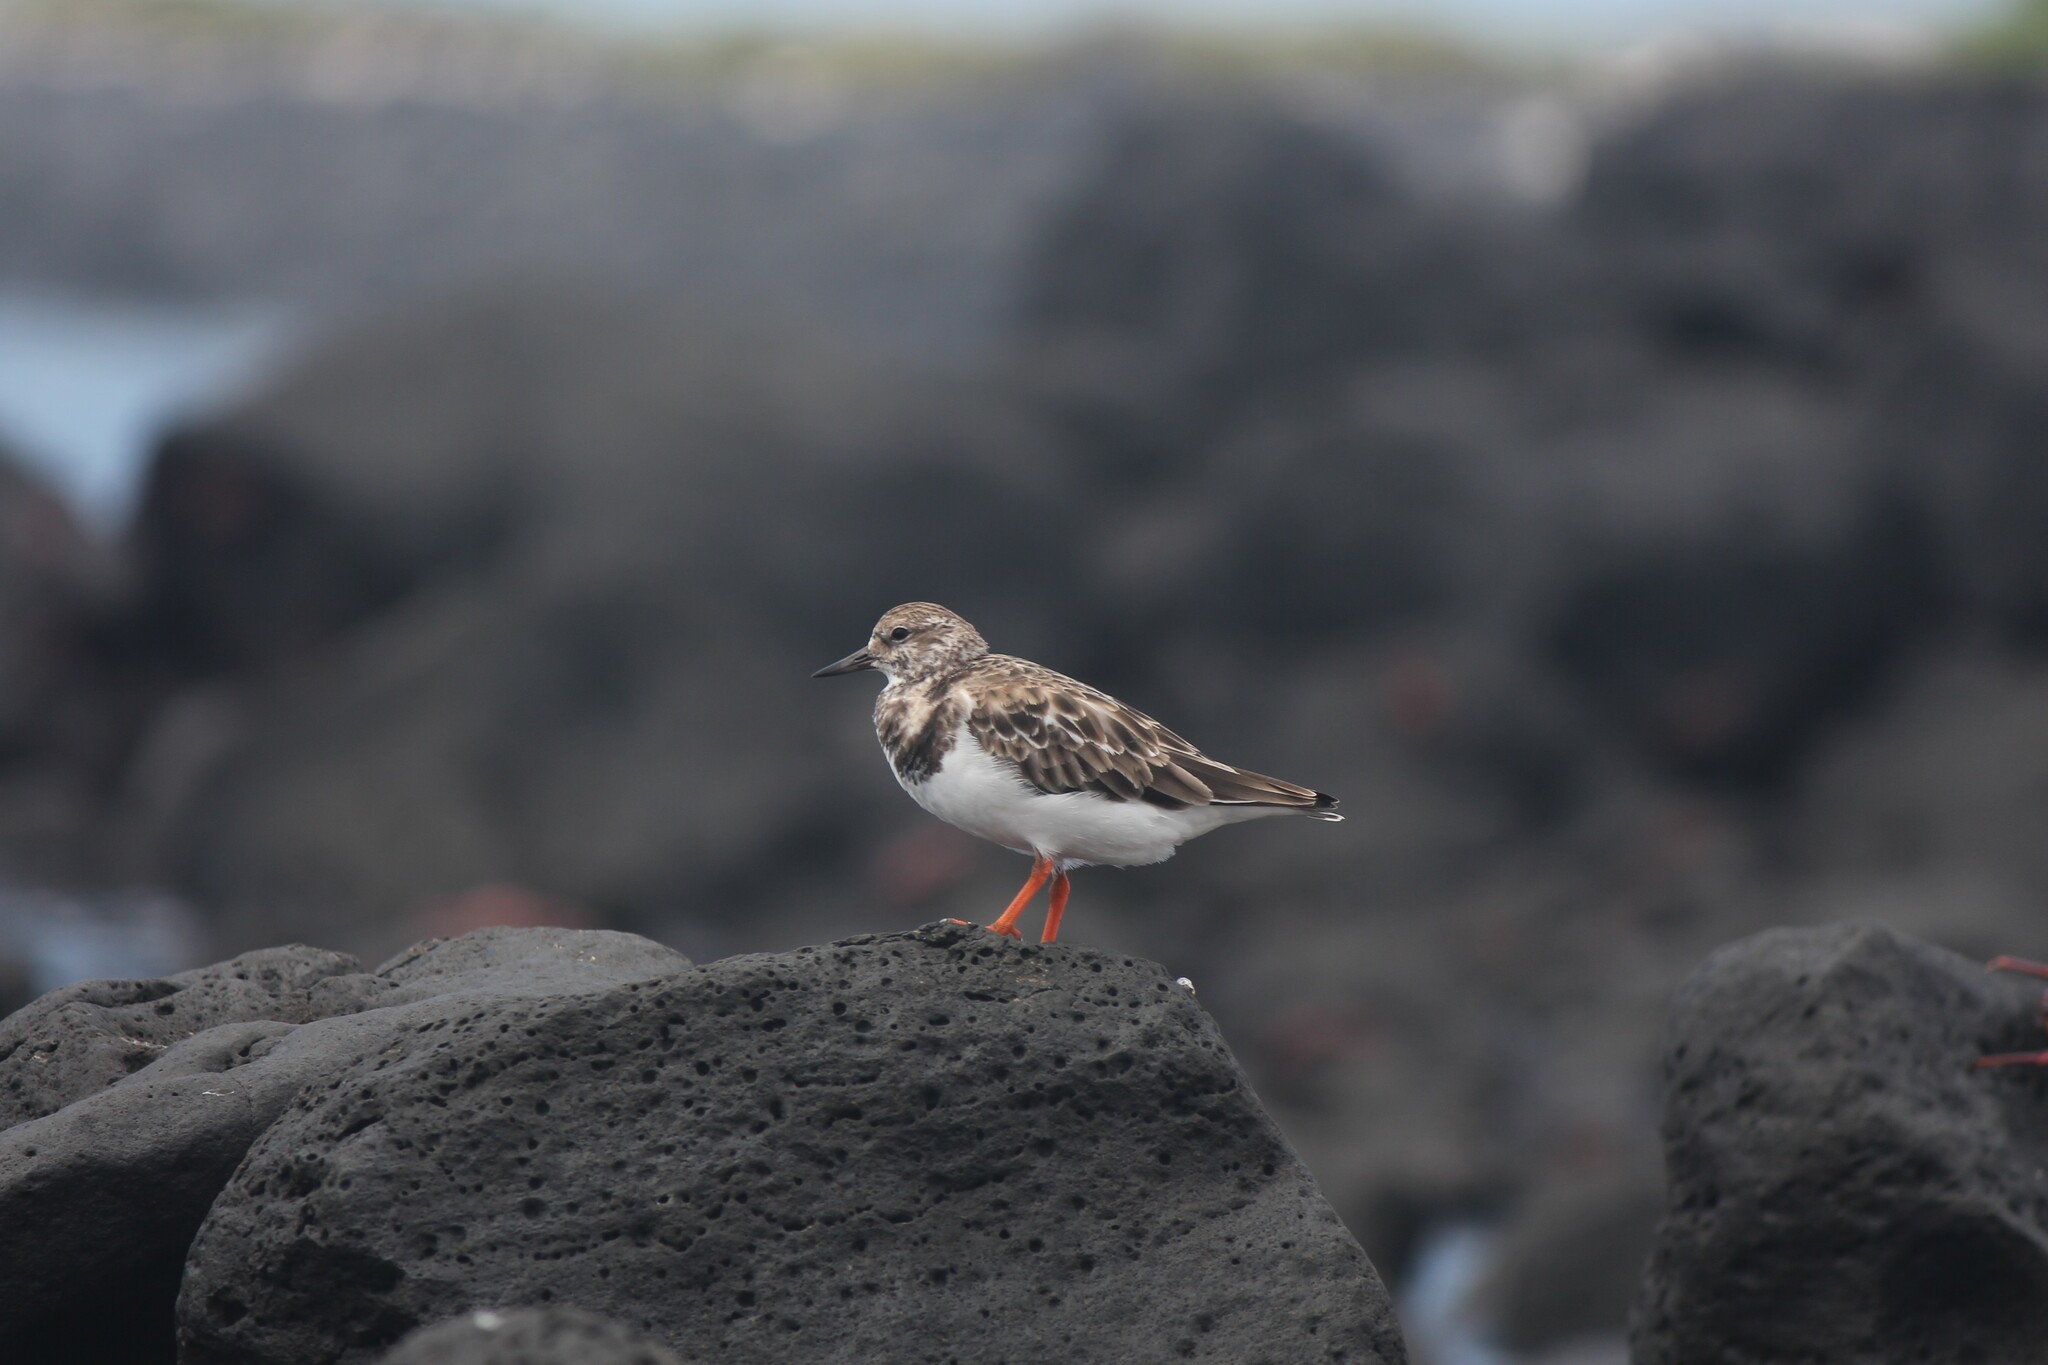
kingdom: Animalia
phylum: Chordata
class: Aves
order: Charadriiformes
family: Scolopacidae
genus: Arenaria
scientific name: Arenaria interpres
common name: Ruddy turnstone
